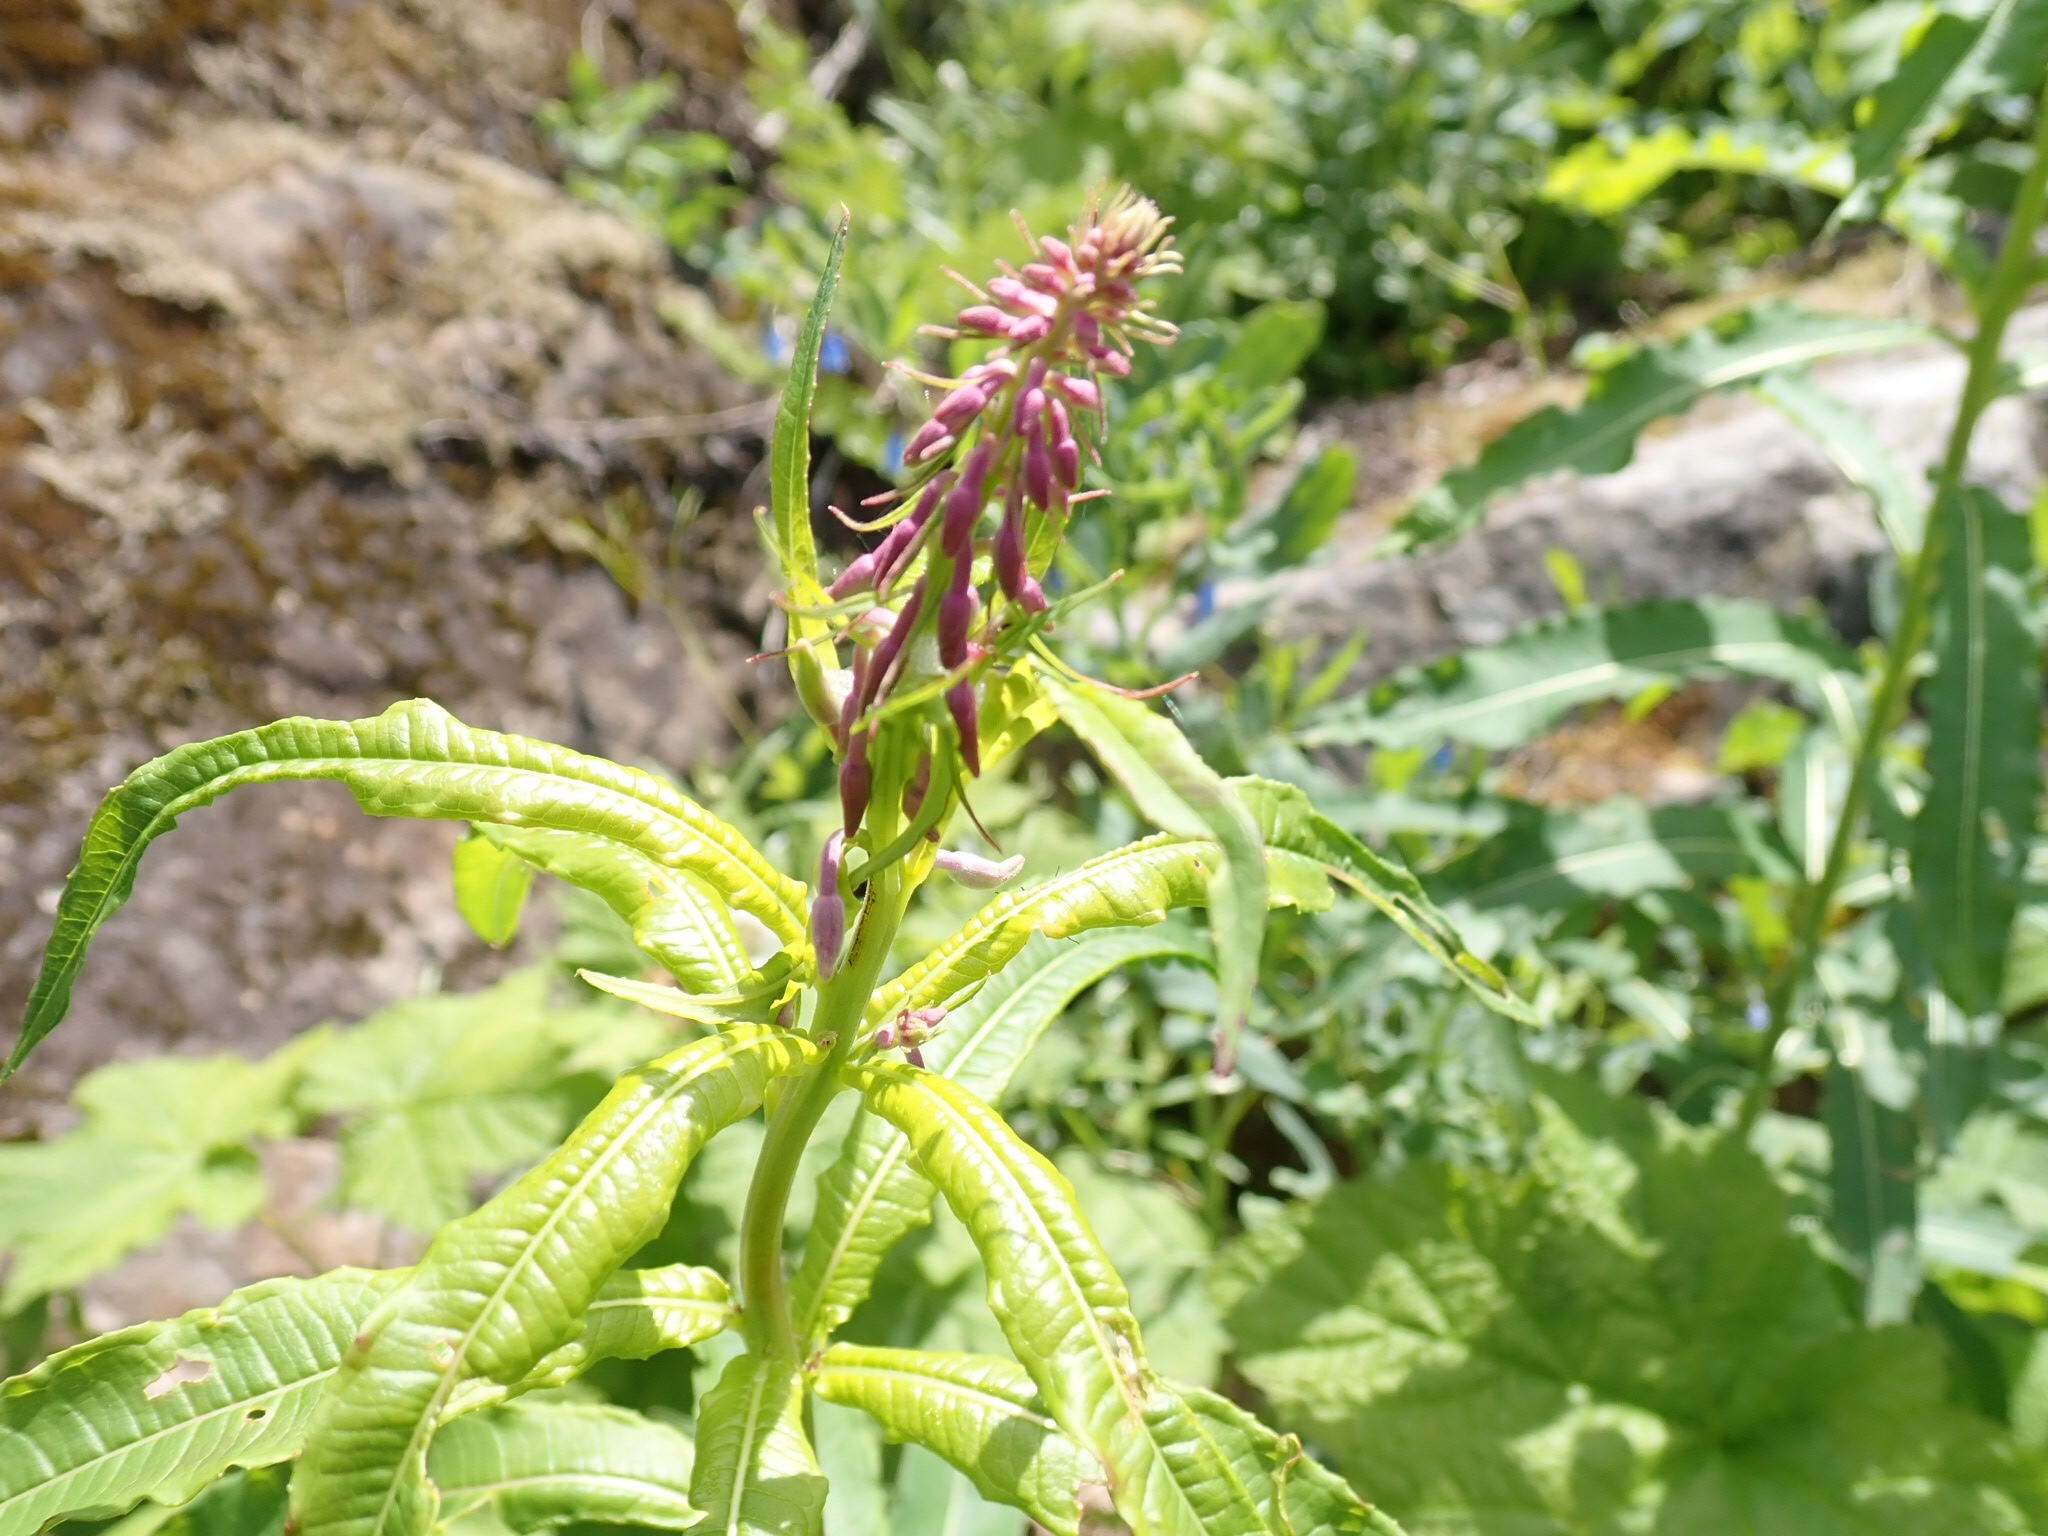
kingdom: Plantae
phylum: Tracheophyta
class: Magnoliopsida
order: Myrtales
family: Onagraceae
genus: Chamaenerion
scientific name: Chamaenerion angustifolium
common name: Fireweed
